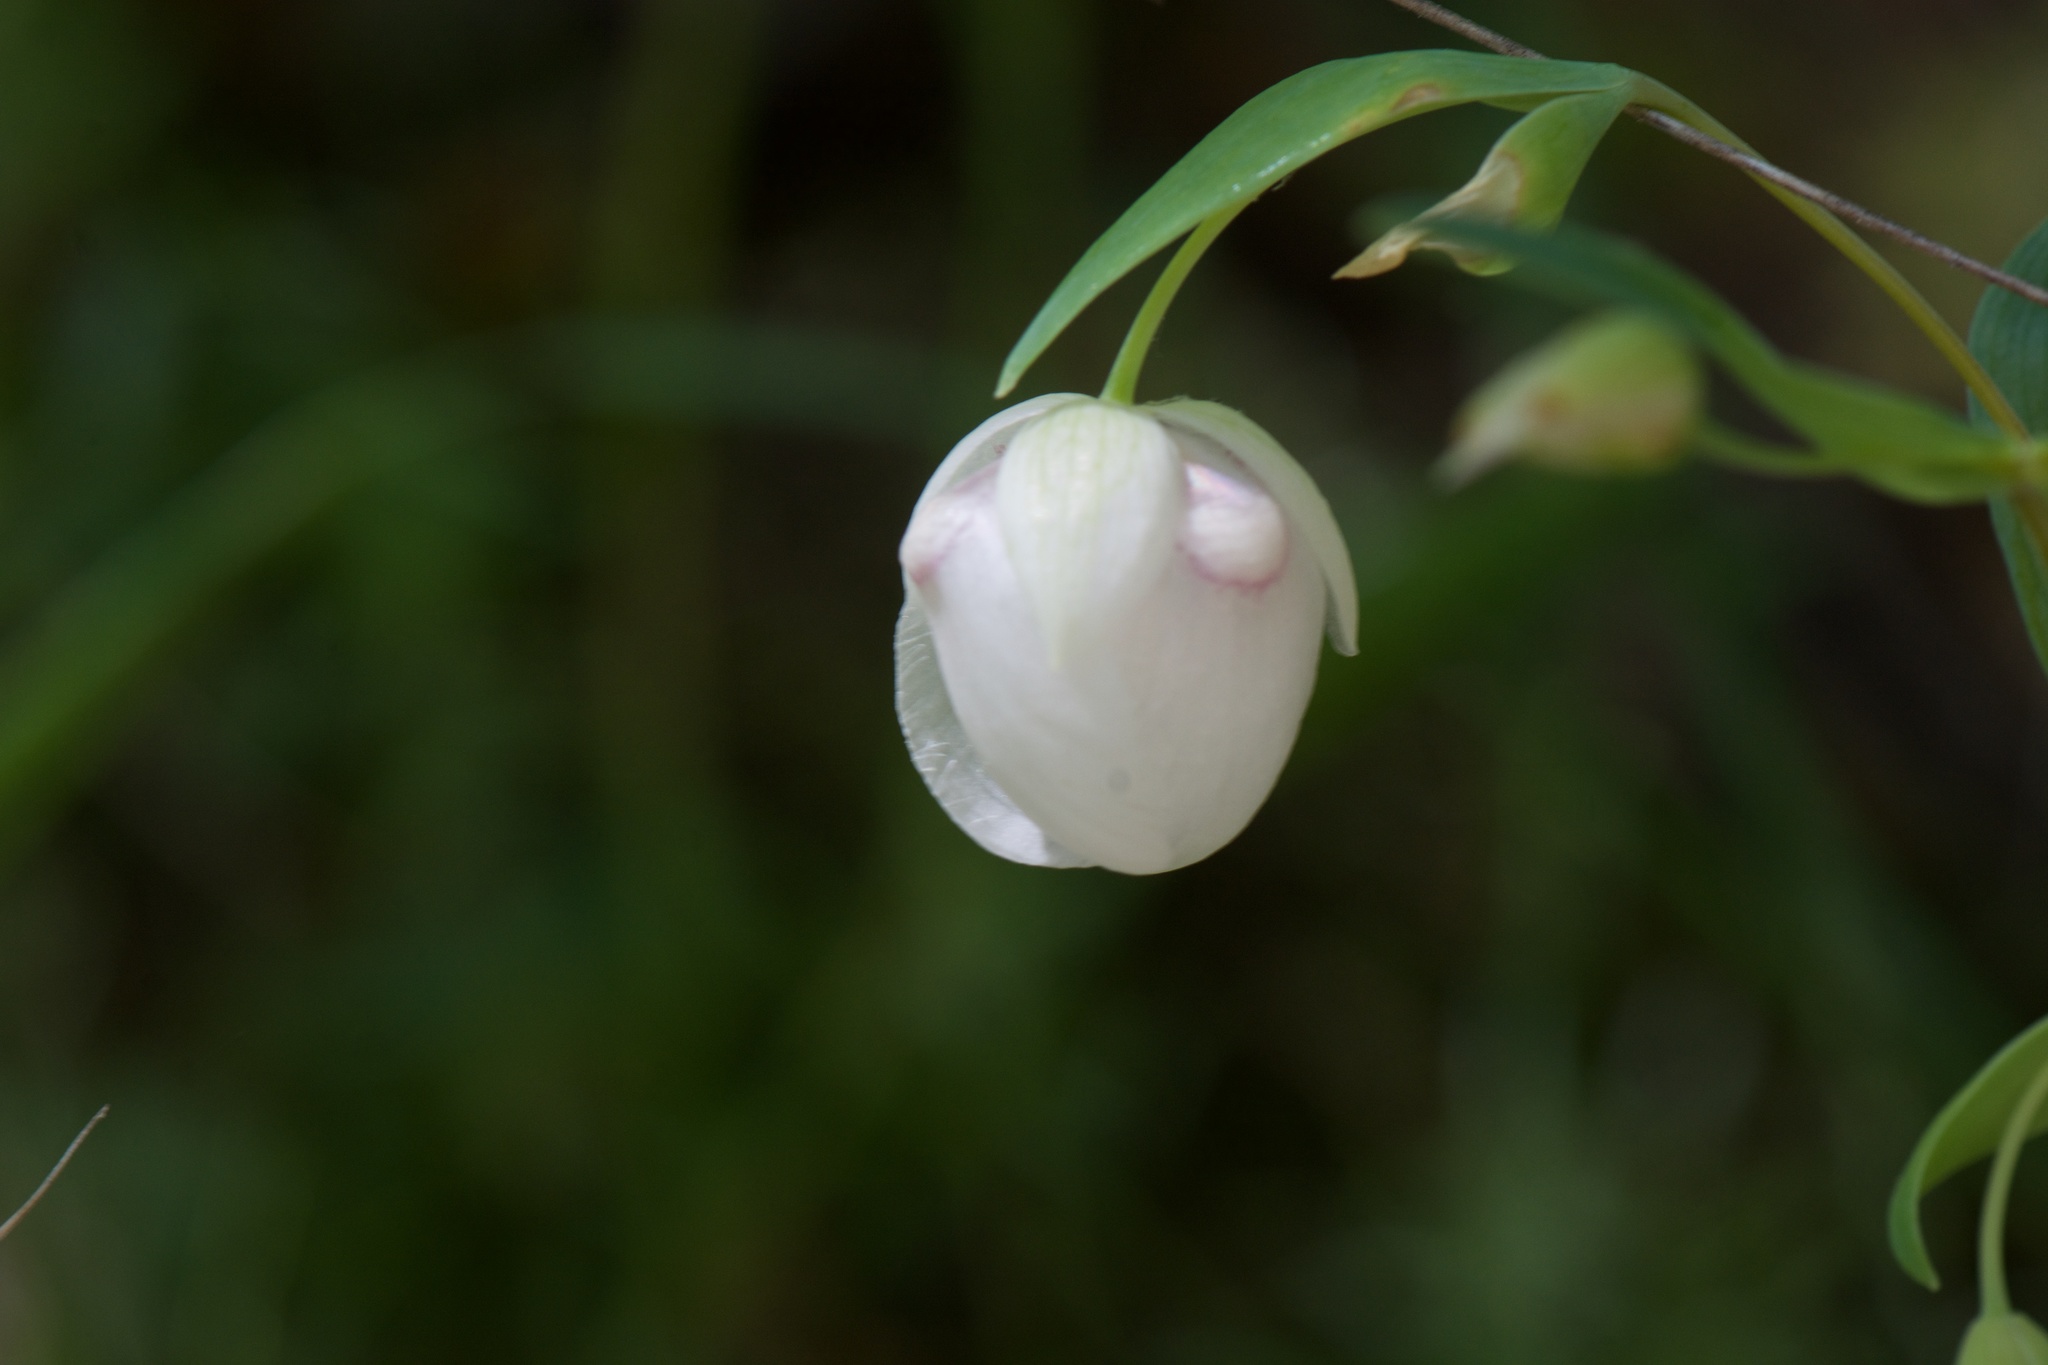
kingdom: Plantae
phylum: Tracheophyta
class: Liliopsida
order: Liliales
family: Liliaceae
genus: Calochortus
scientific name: Calochortus albus
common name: Fairy-lantern
